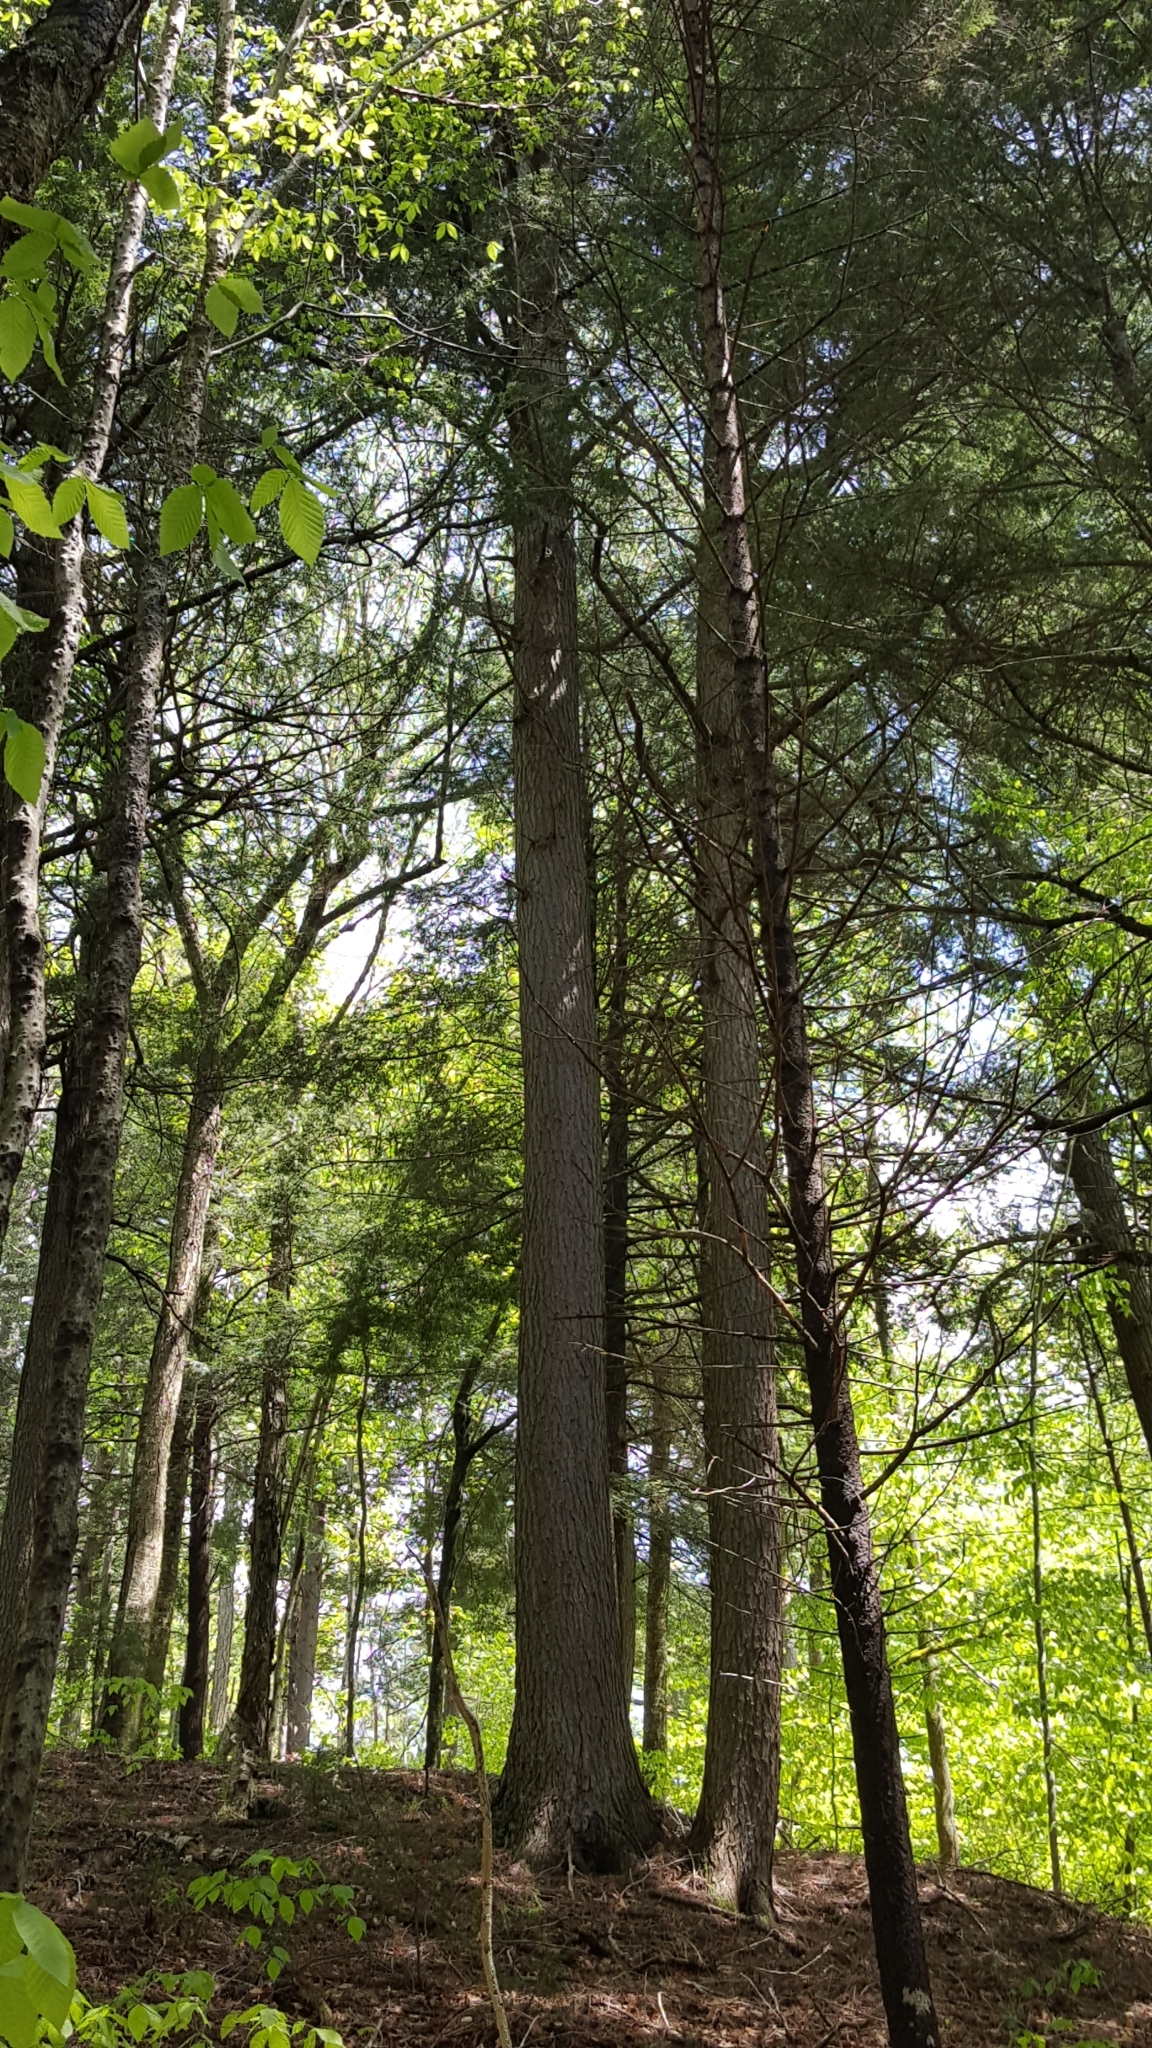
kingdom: Plantae
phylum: Tracheophyta
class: Pinopsida
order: Pinales
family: Pinaceae
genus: Tsuga
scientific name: Tsuga canadensis
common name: Eastern hemlock
